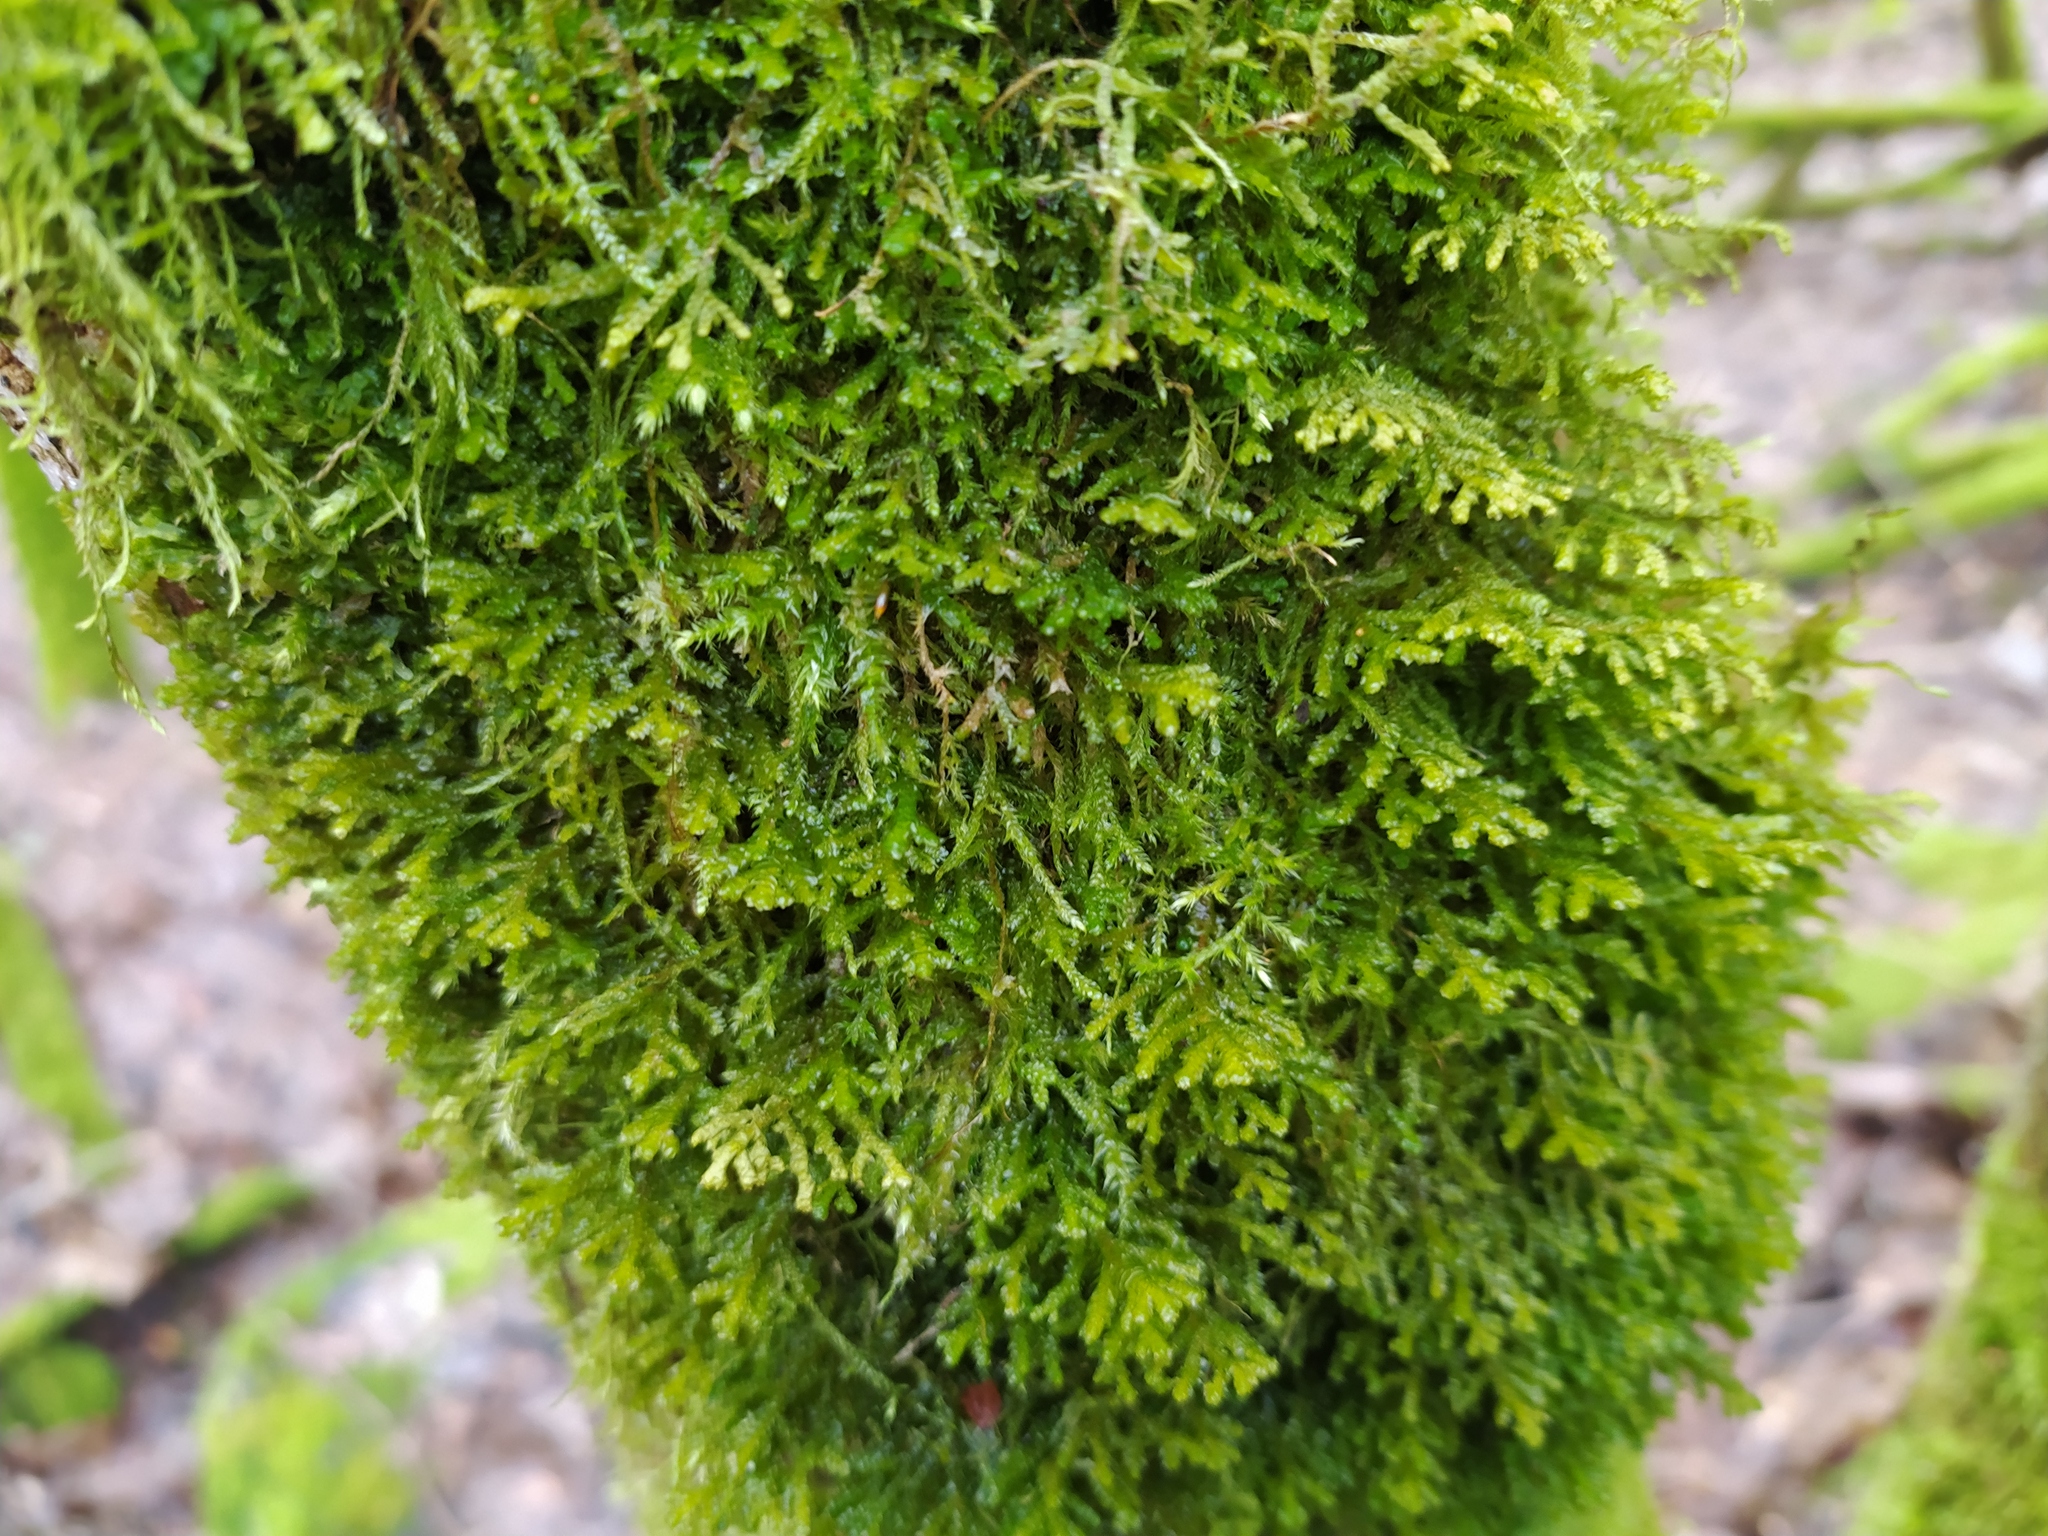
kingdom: Plantae
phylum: Marchantiophyta
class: Jungermanniopsida
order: Porellales
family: Porellaceae
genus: Porella
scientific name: Porella platyphylla
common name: Wall scalewort
